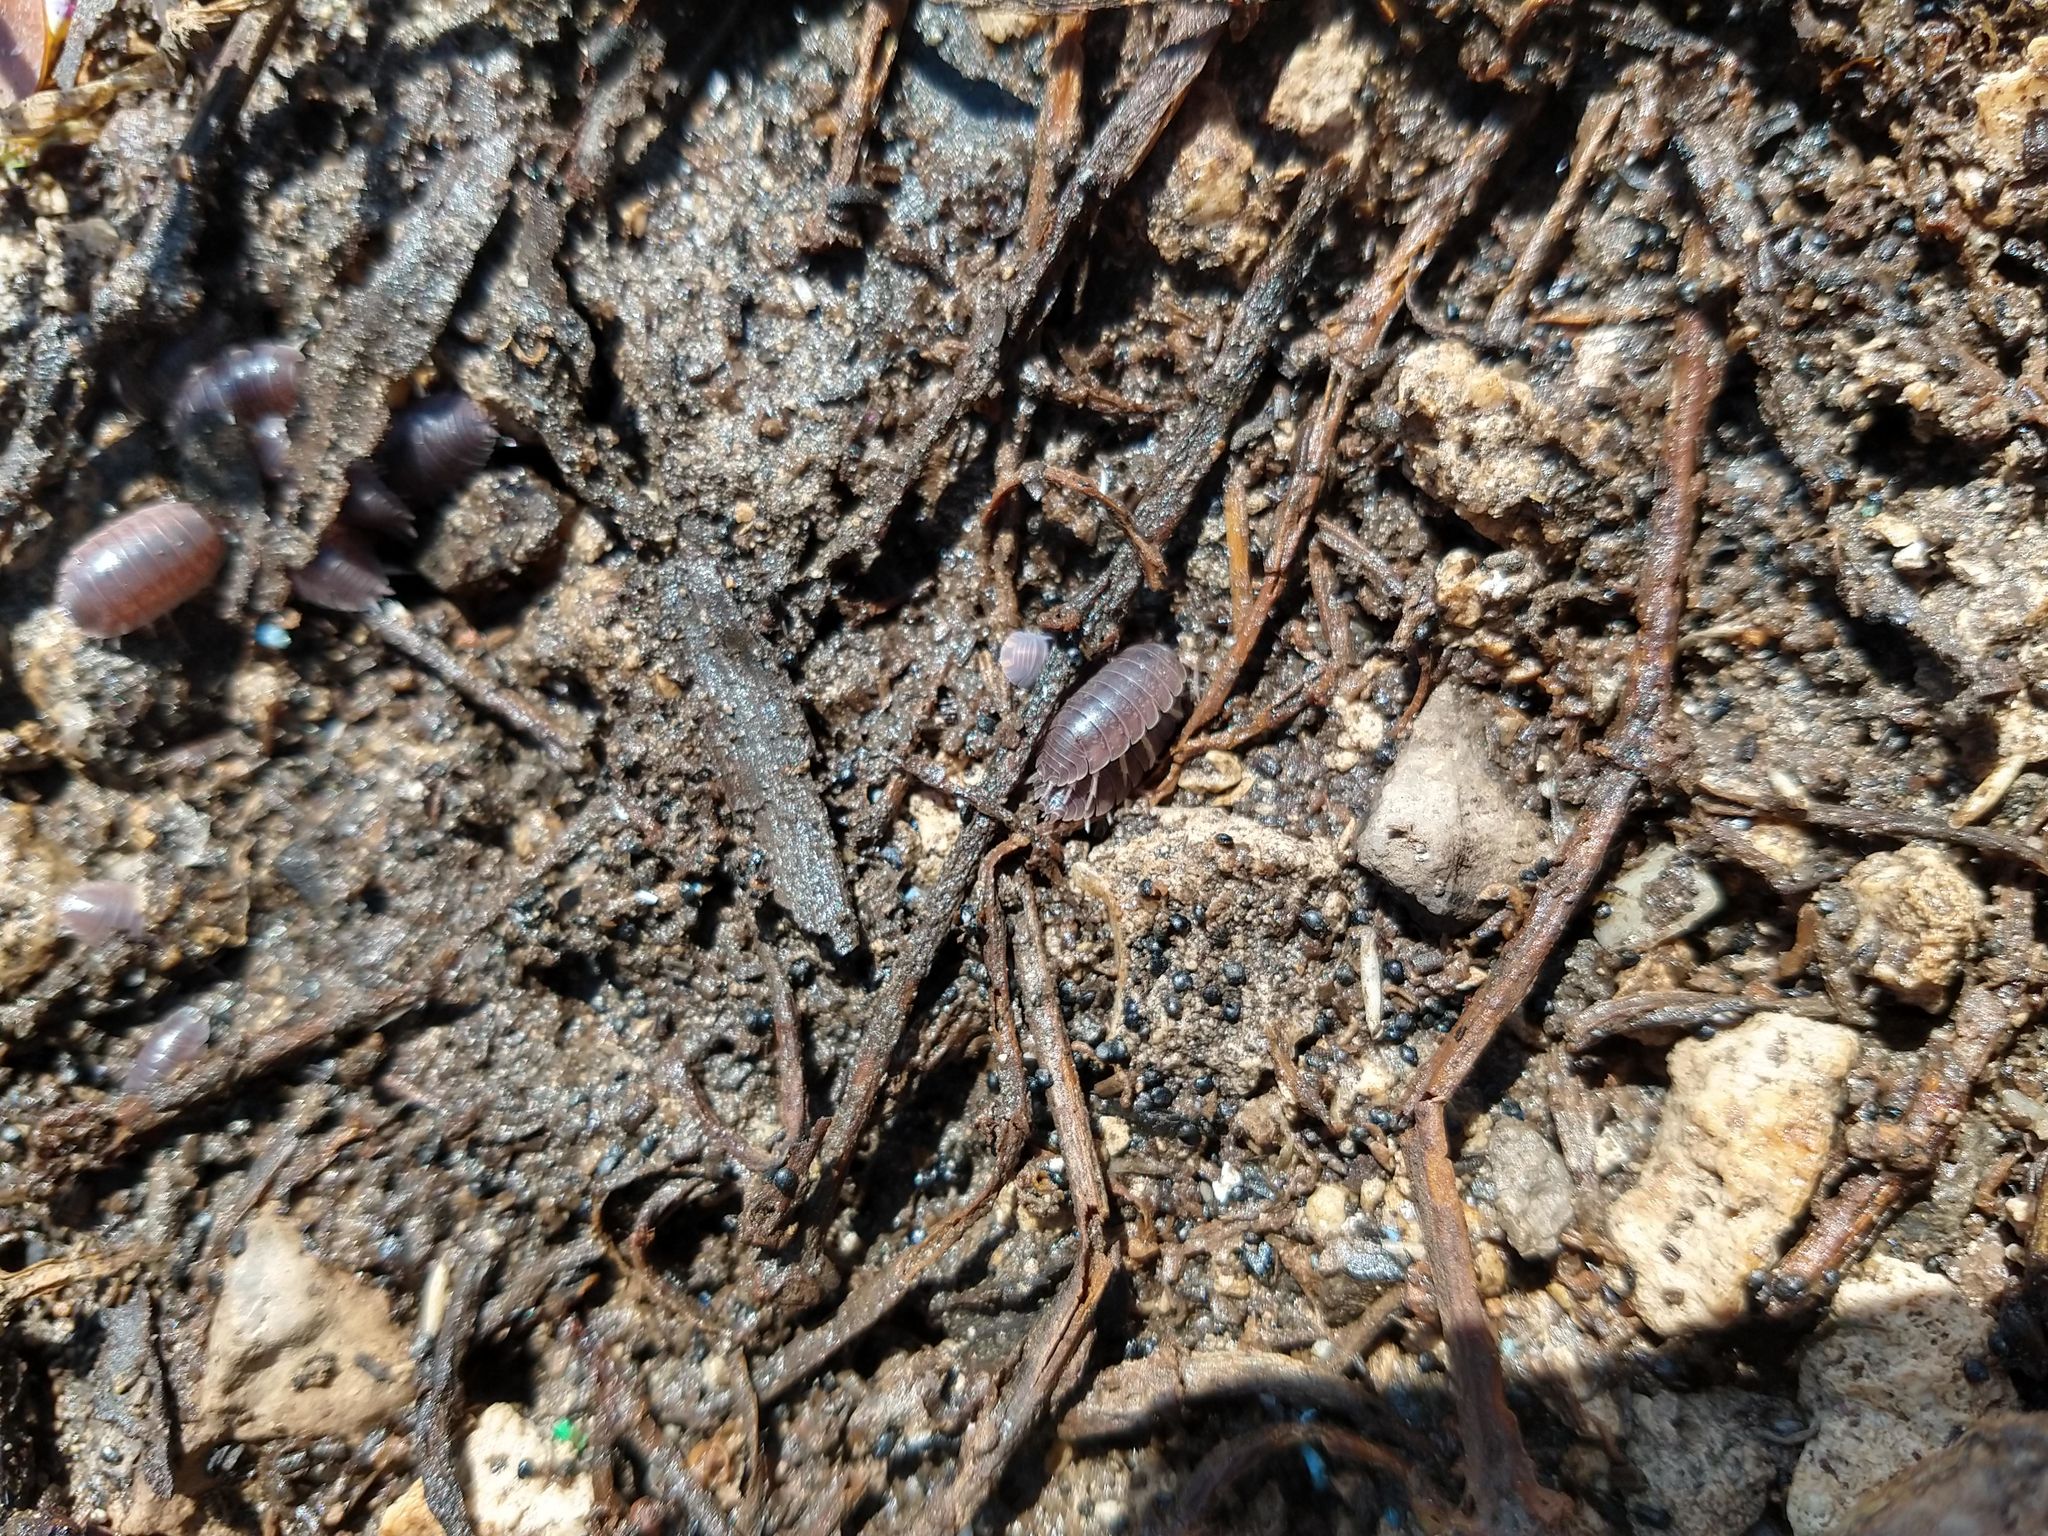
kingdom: Animalia
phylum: Arthropoda
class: Malacostraca
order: Isopoda
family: Porcellionidae
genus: Porcellio
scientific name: Porcellio laevis
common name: Swift woodlouse
